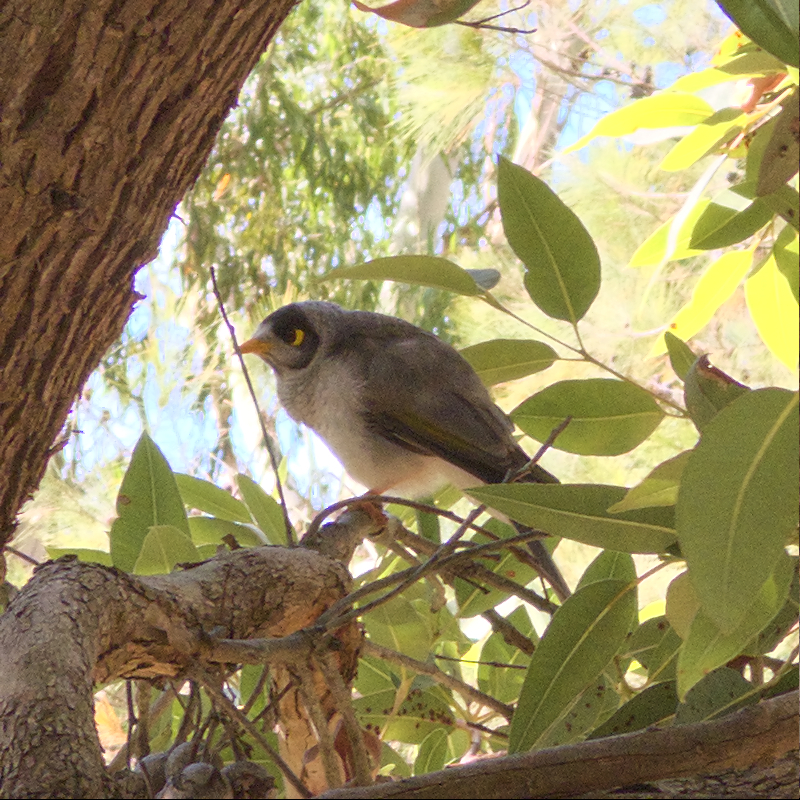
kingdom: Animalia
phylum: Chordata
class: Aves
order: Passeriformes
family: Meliphagidae
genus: Manorina
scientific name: Manorina melanocephala
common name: Noisy miner
